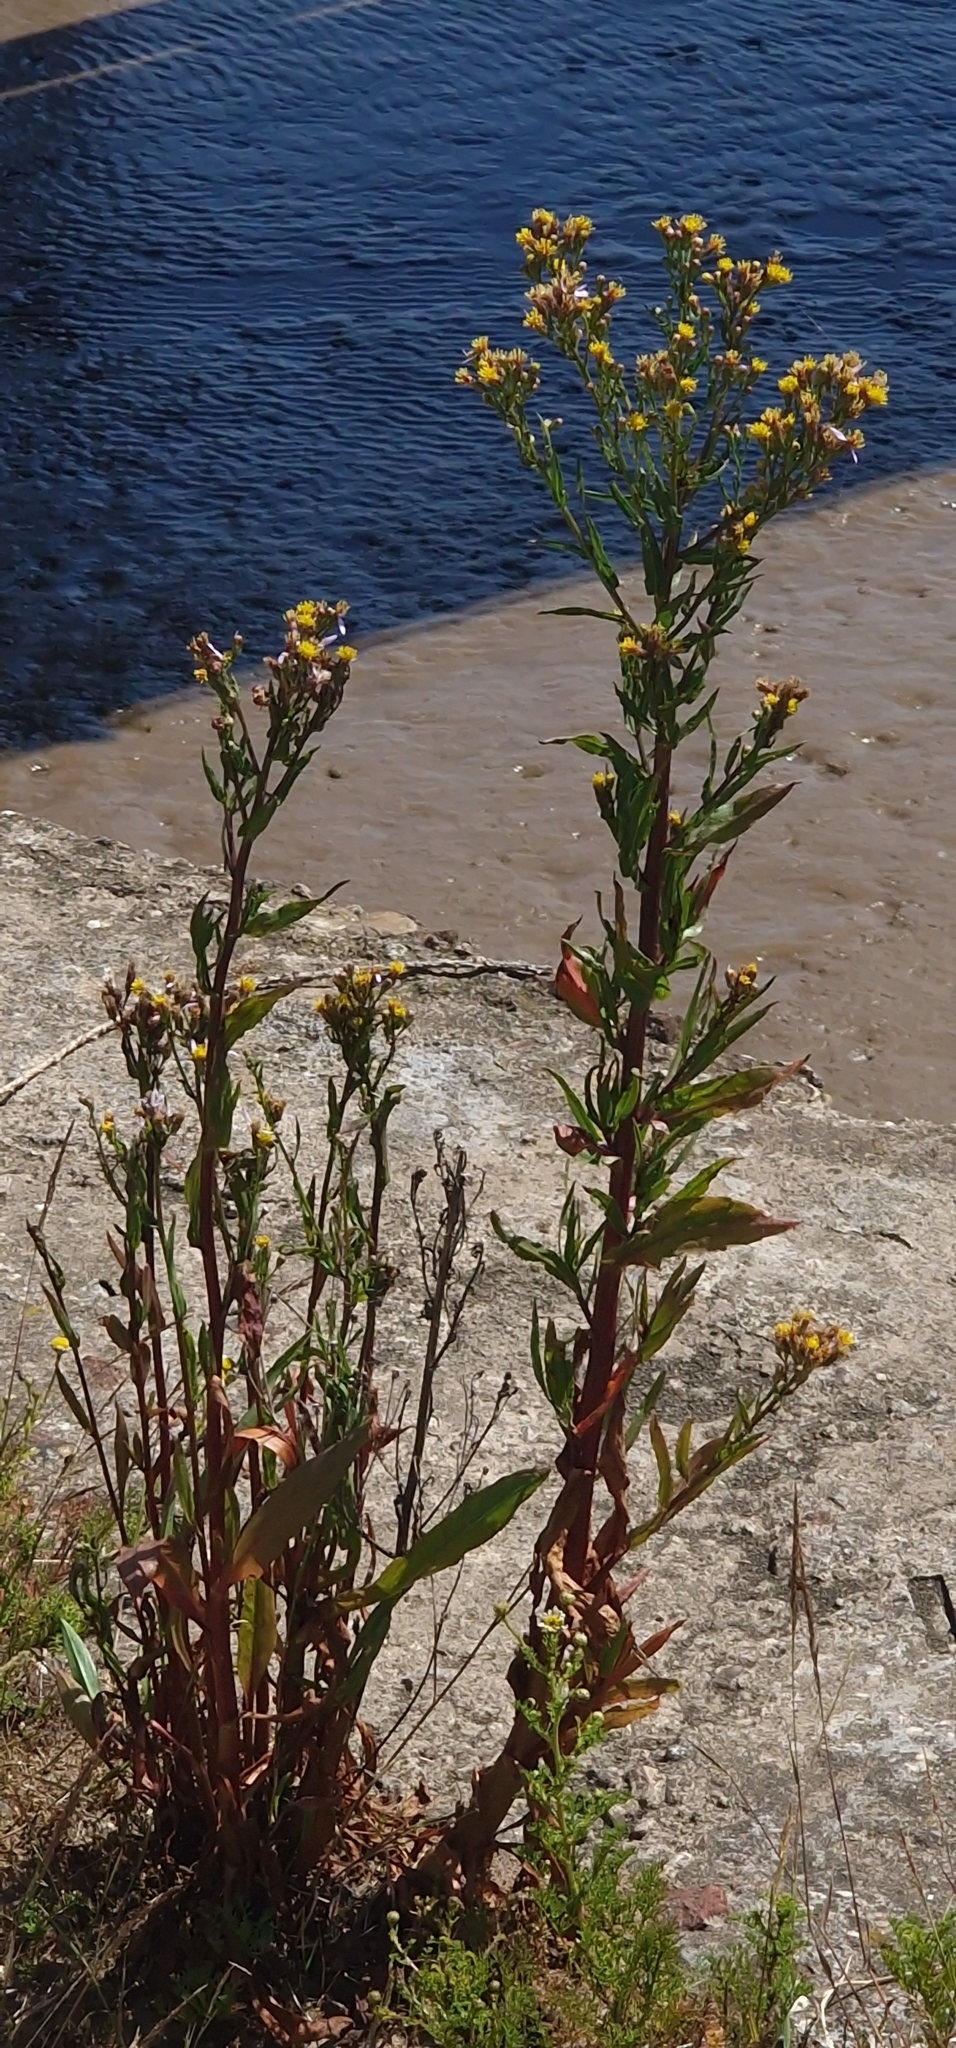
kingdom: Plantae
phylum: Tracheophyta
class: Magnoliopsida
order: Asterales
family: Asteraceae
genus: Tripolium
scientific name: Tripolium pannonicum
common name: Sea aster
